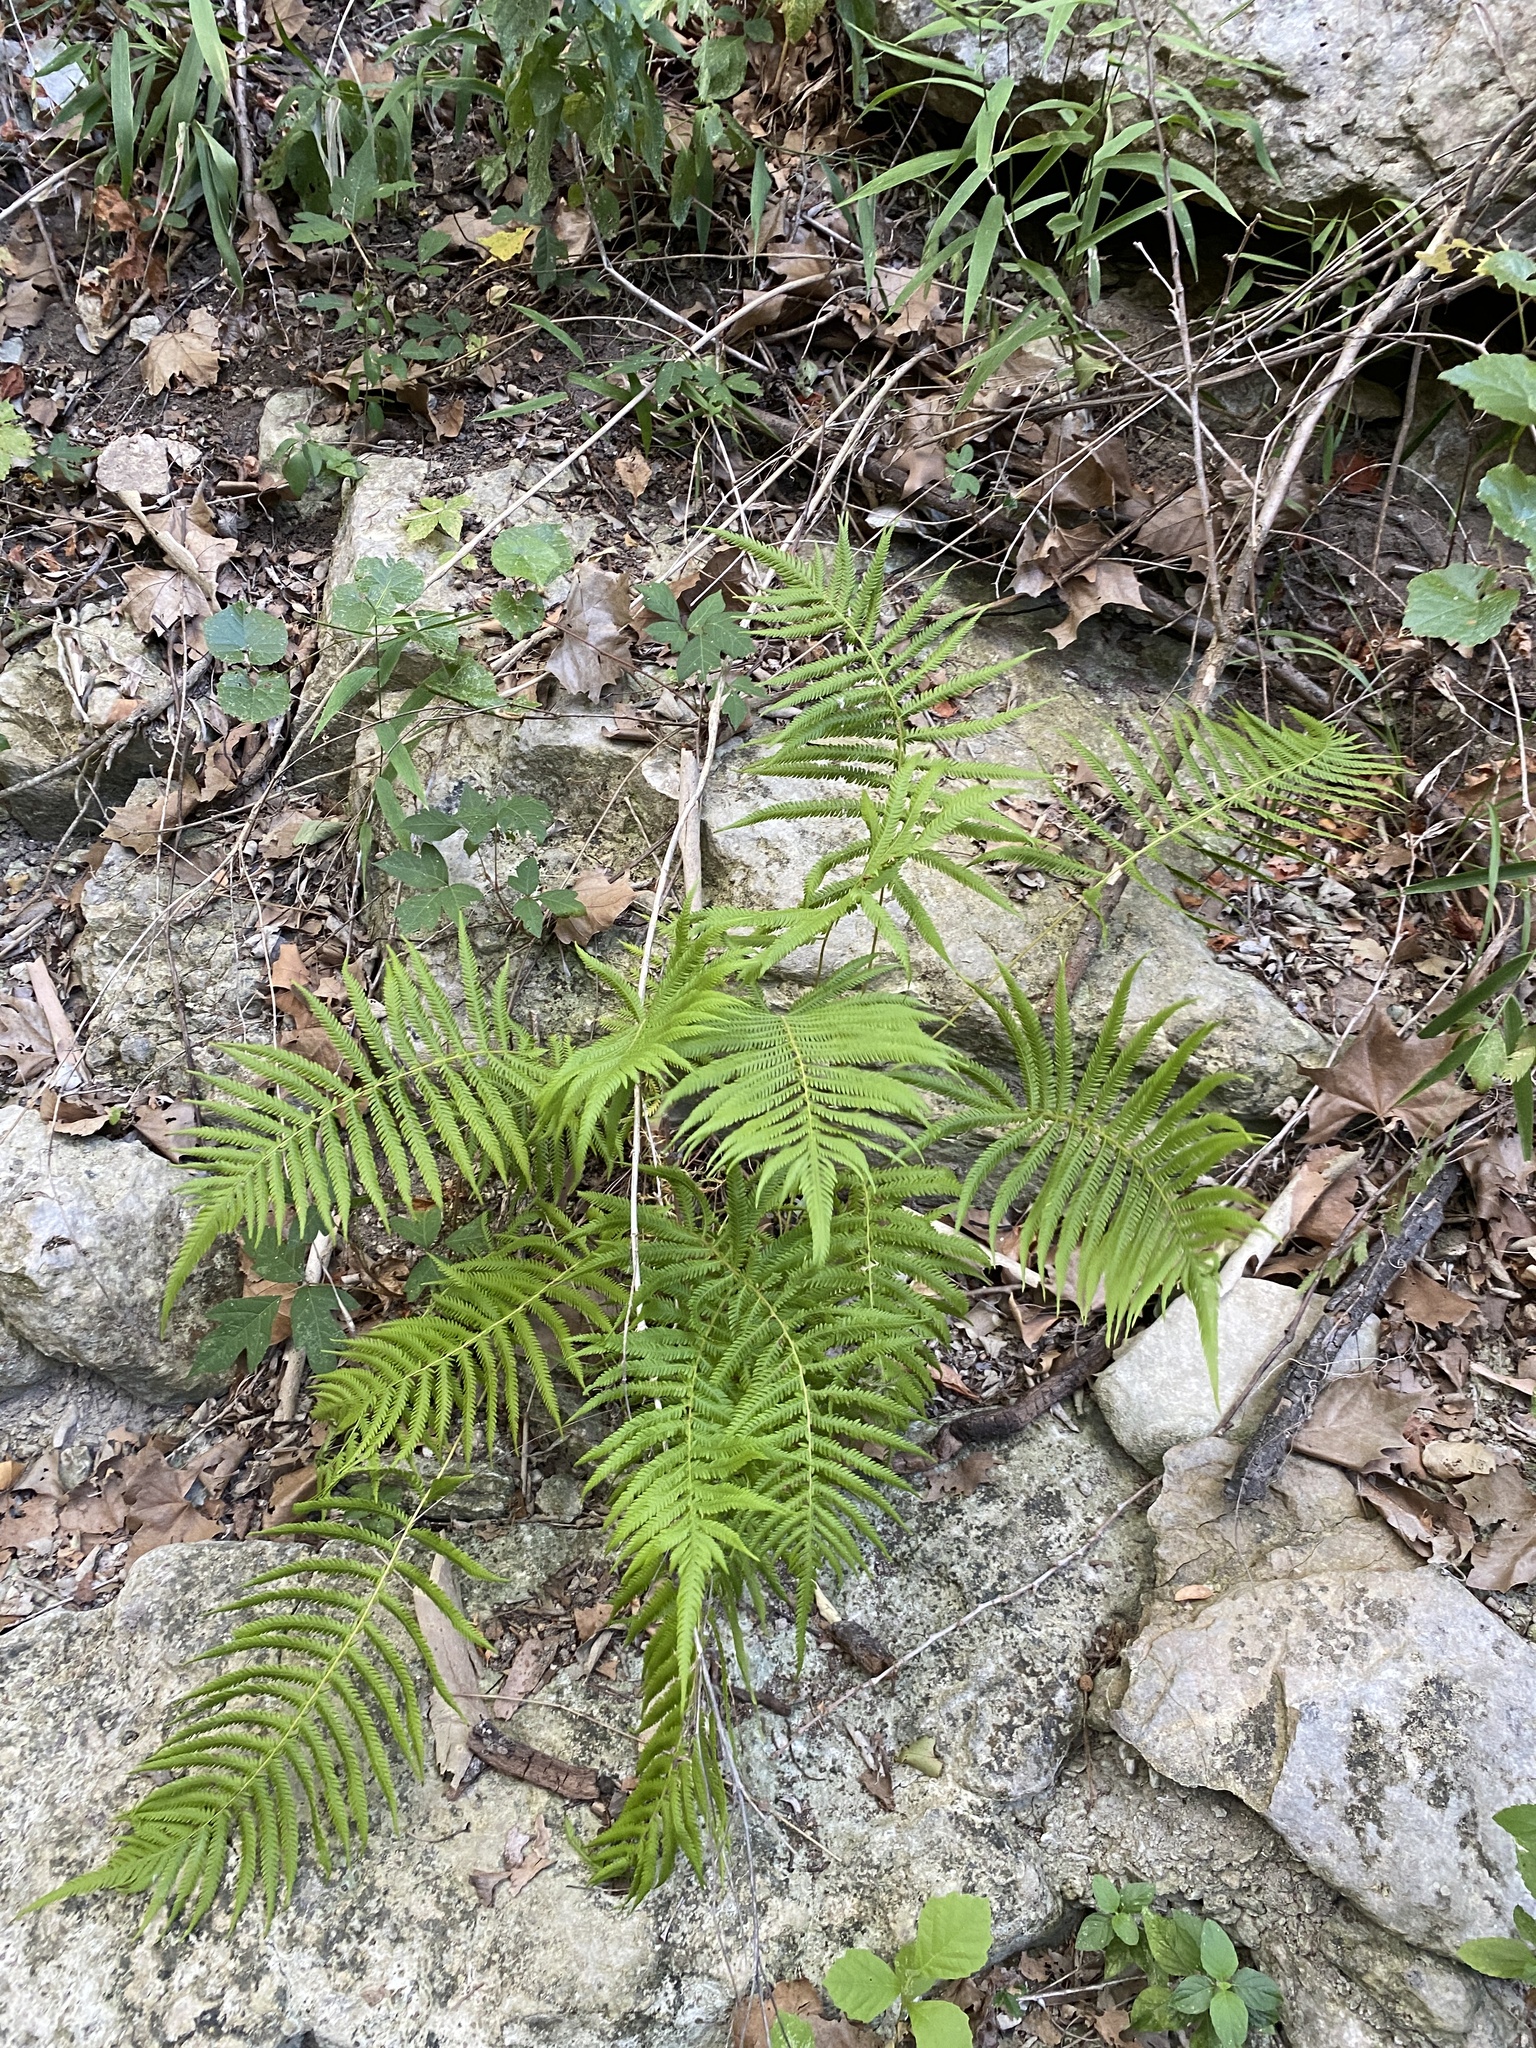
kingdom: Plantae
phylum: Tracheophyta
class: Polypodiopsida
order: Polypodiales
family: Thelypteridaceae
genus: Pelazoneuron
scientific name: Pelazoneuron ovatum
